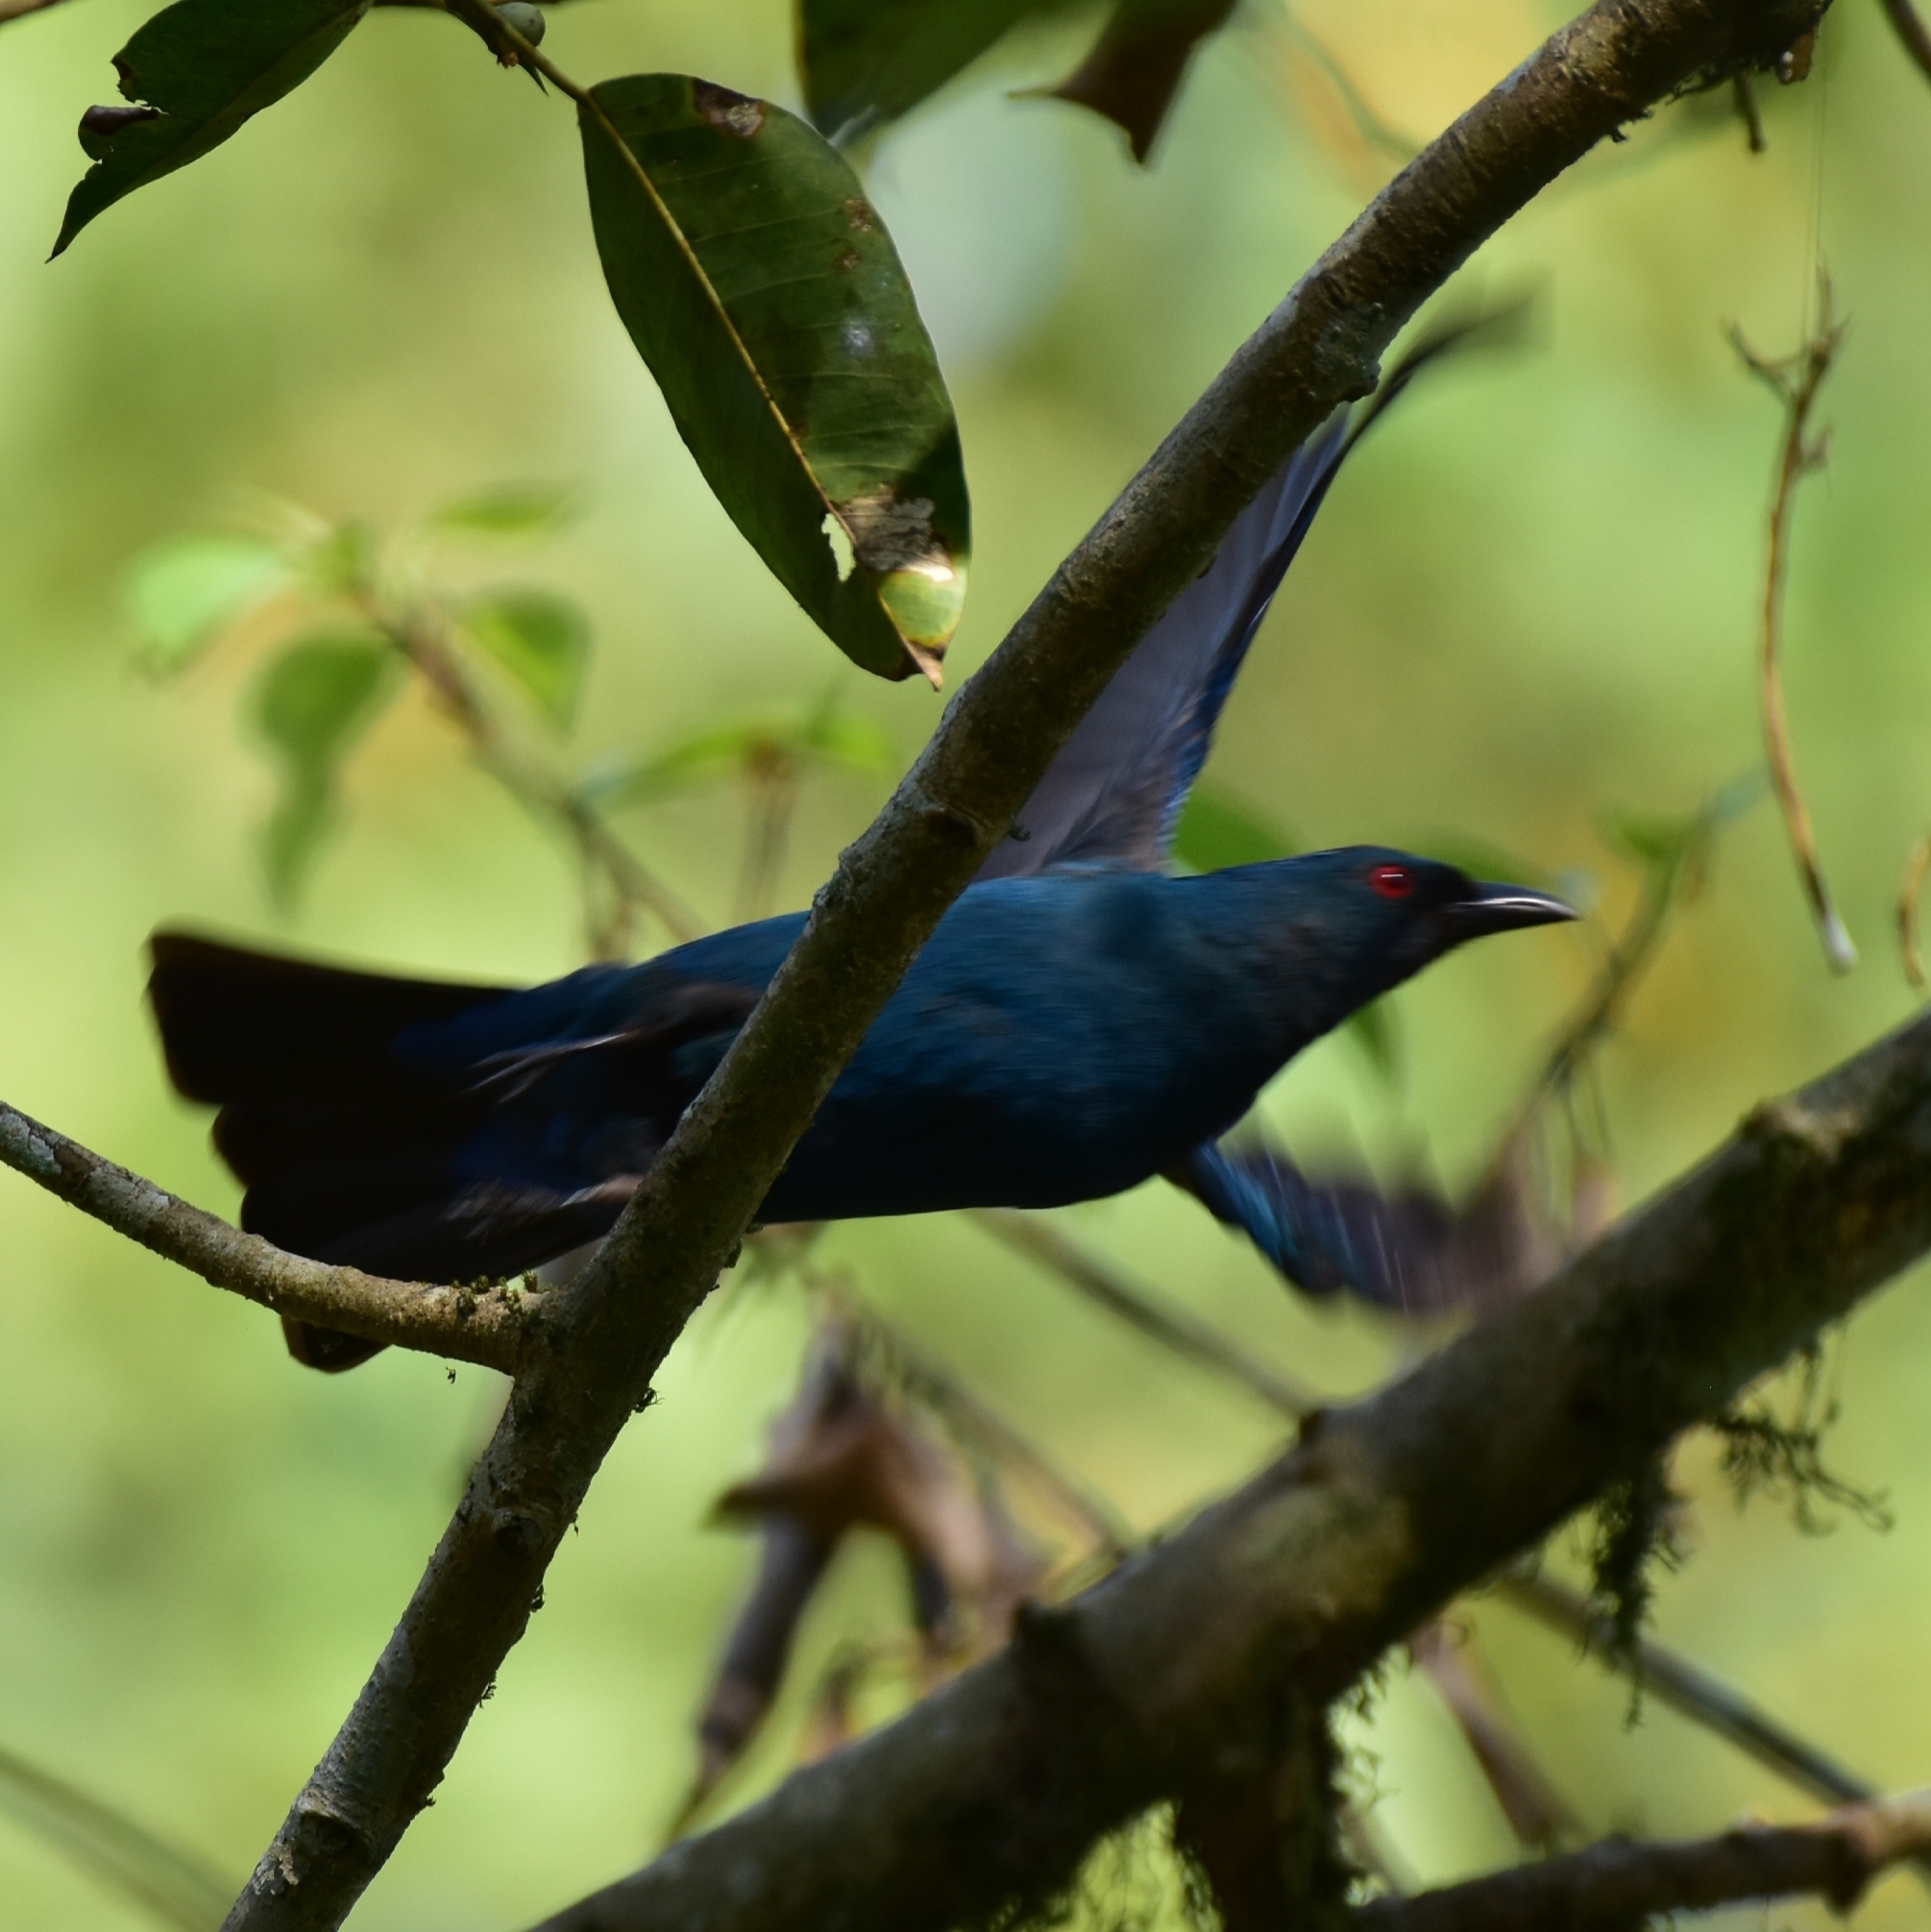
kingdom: Animalia
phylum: Chordata
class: Aves
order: Passeriformes
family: Irenidae
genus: Irena
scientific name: Irena puella
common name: Asian fairy-bluebird
